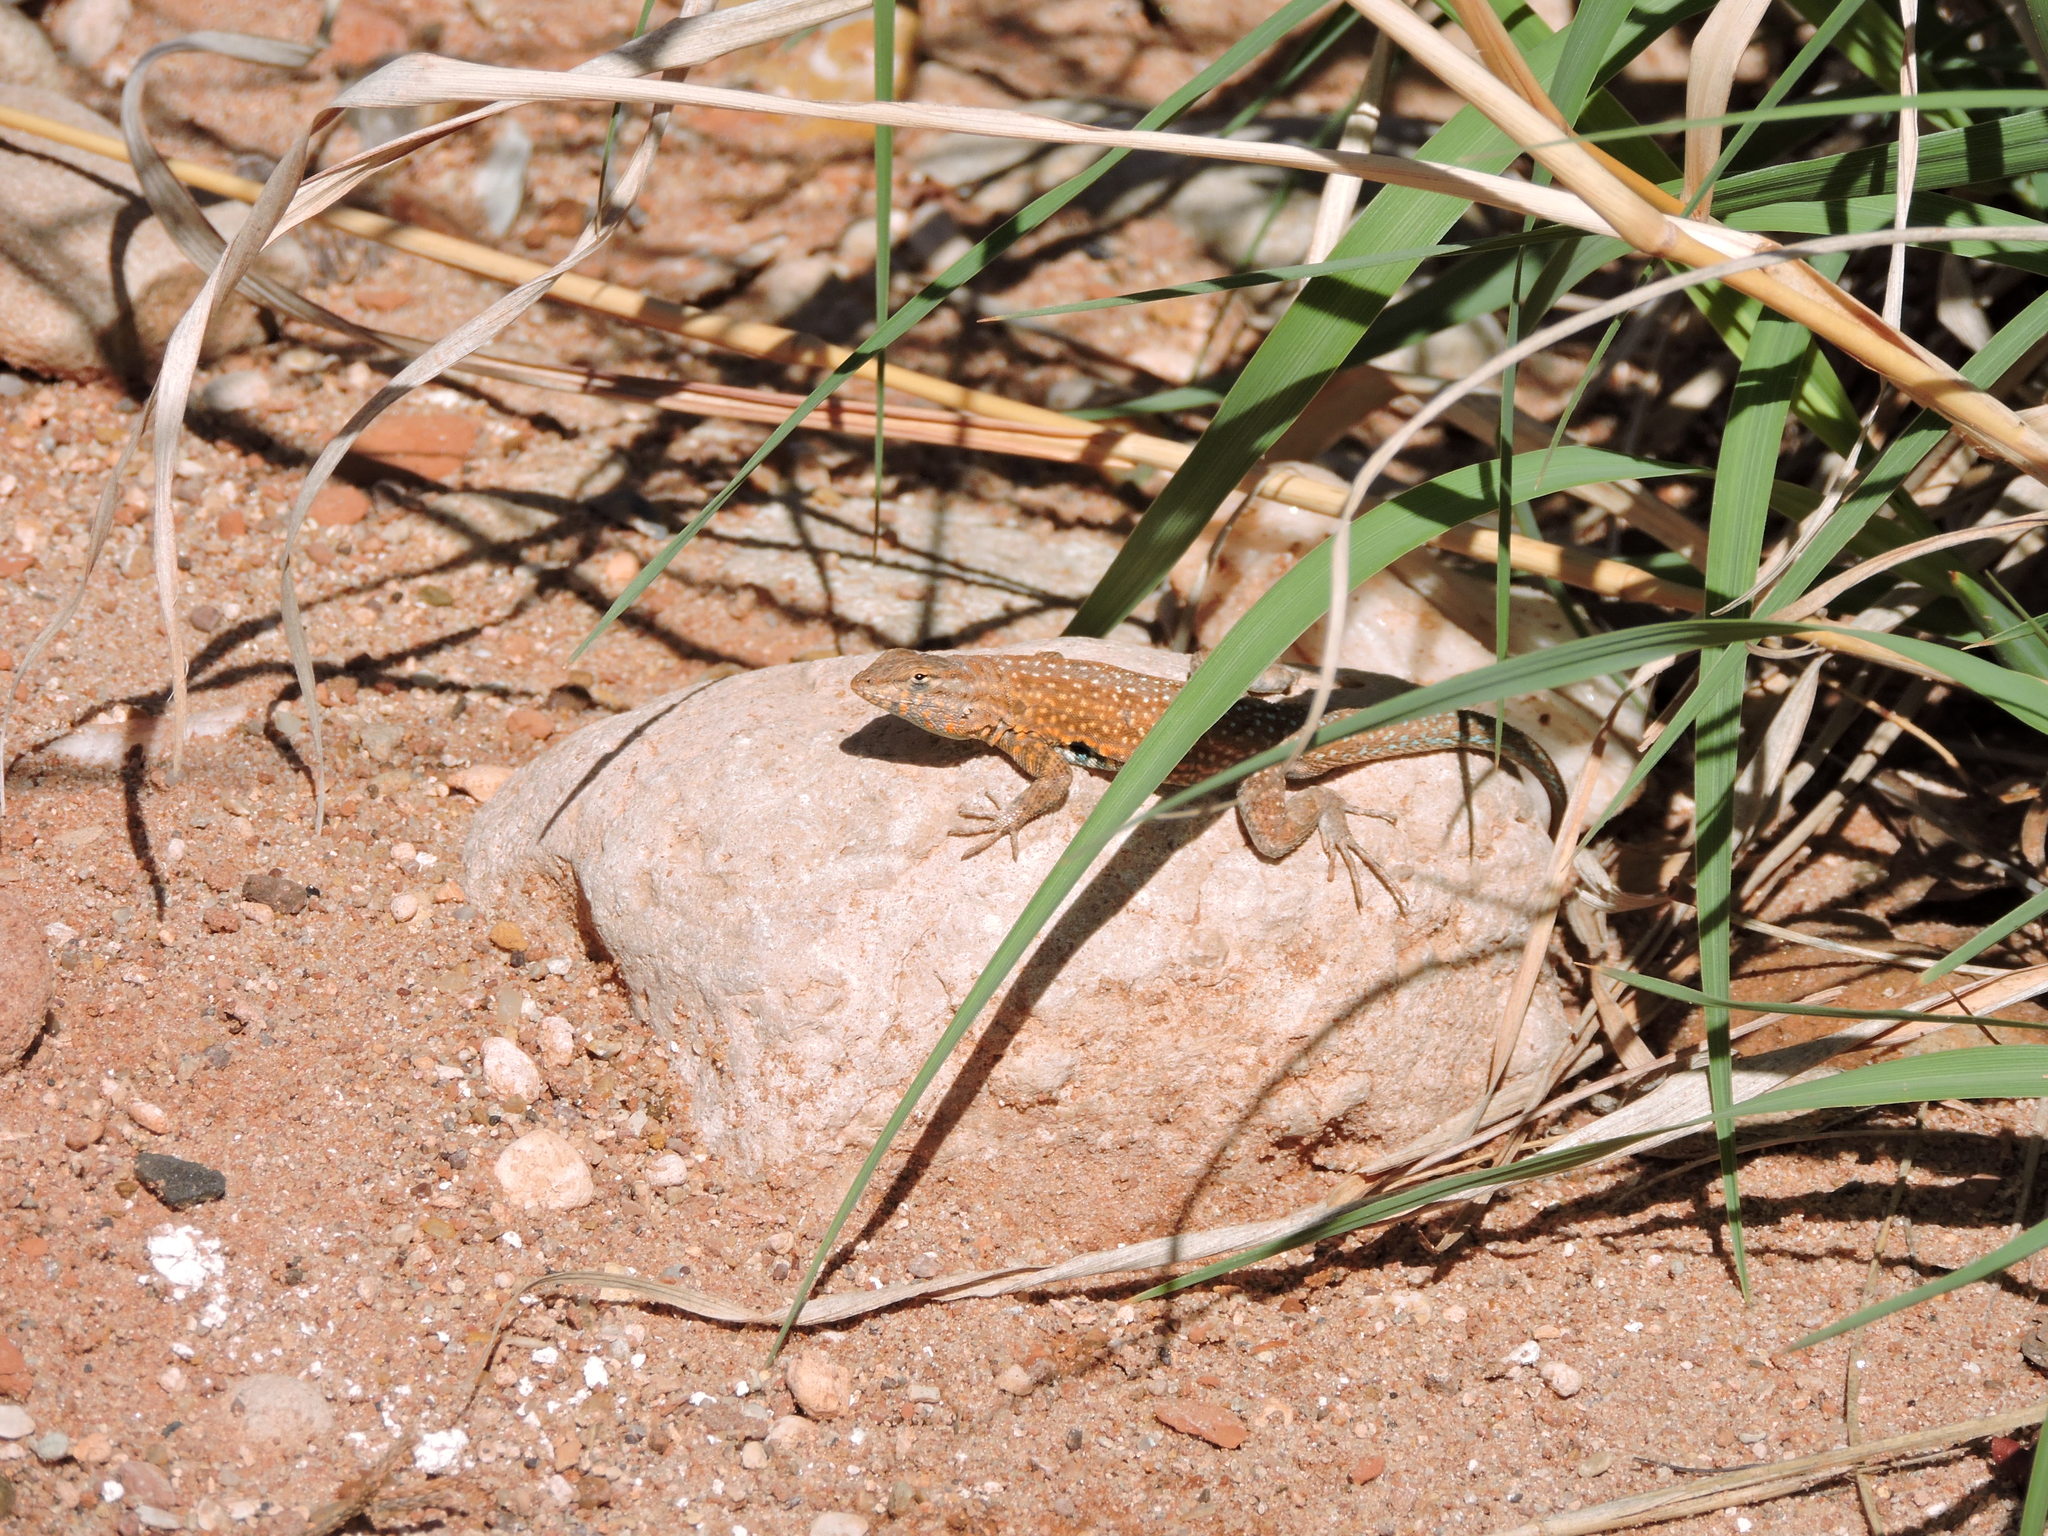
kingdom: Animalia
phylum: Chordata
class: Squamata
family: Phrynosomatidae
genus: Uta
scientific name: Uta stansburiana
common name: Side-blotched lizard
